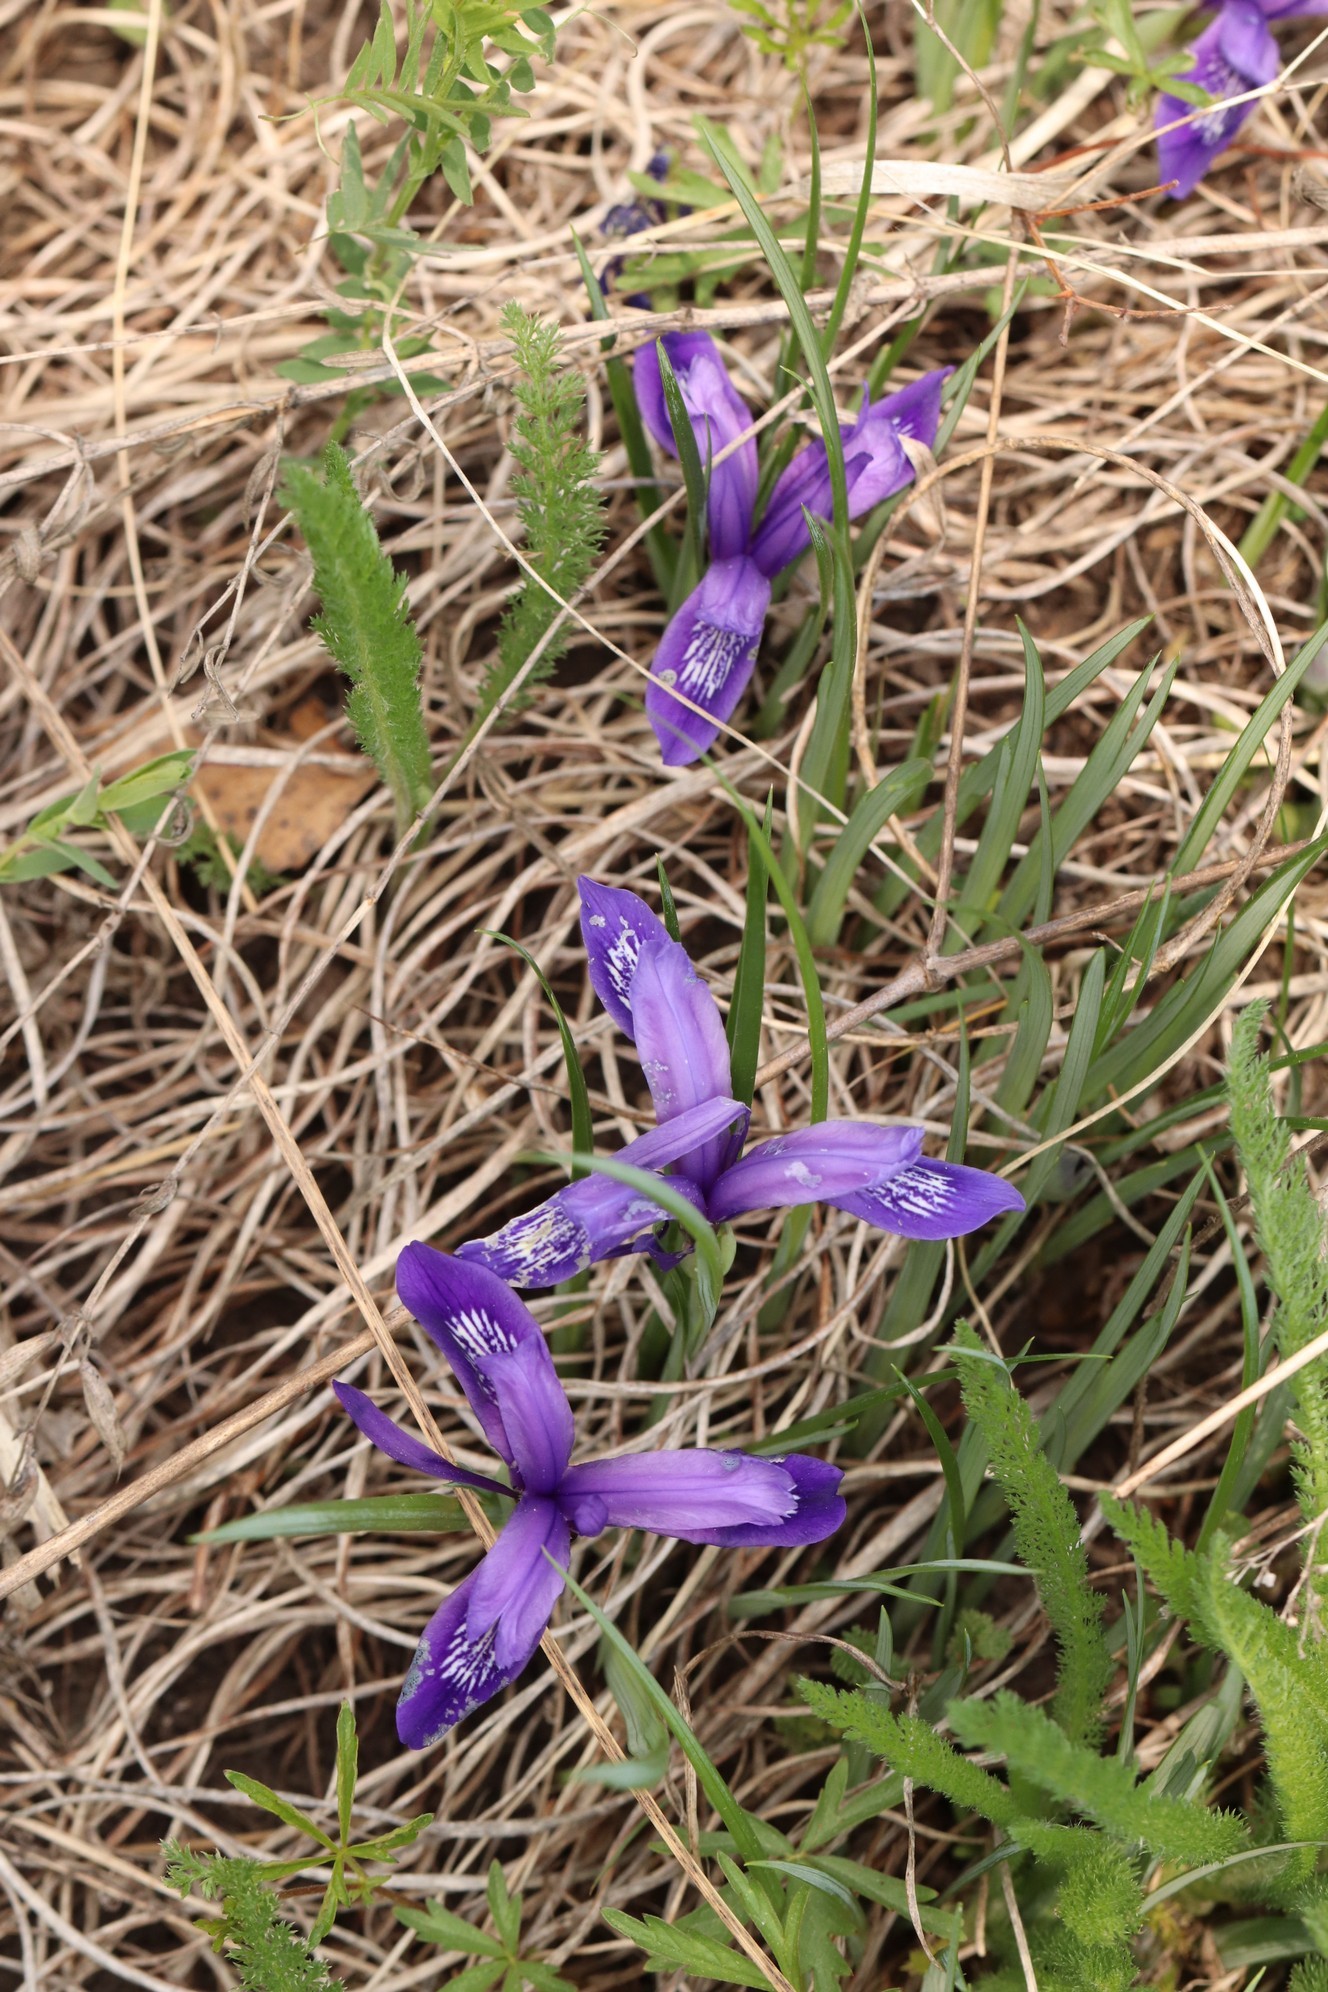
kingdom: Plantae
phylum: Tracheophyta
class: Liliopsida
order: Asparagales
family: Iridaceae
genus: Iris
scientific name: Iris ruthenica
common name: Purple-bract iris
